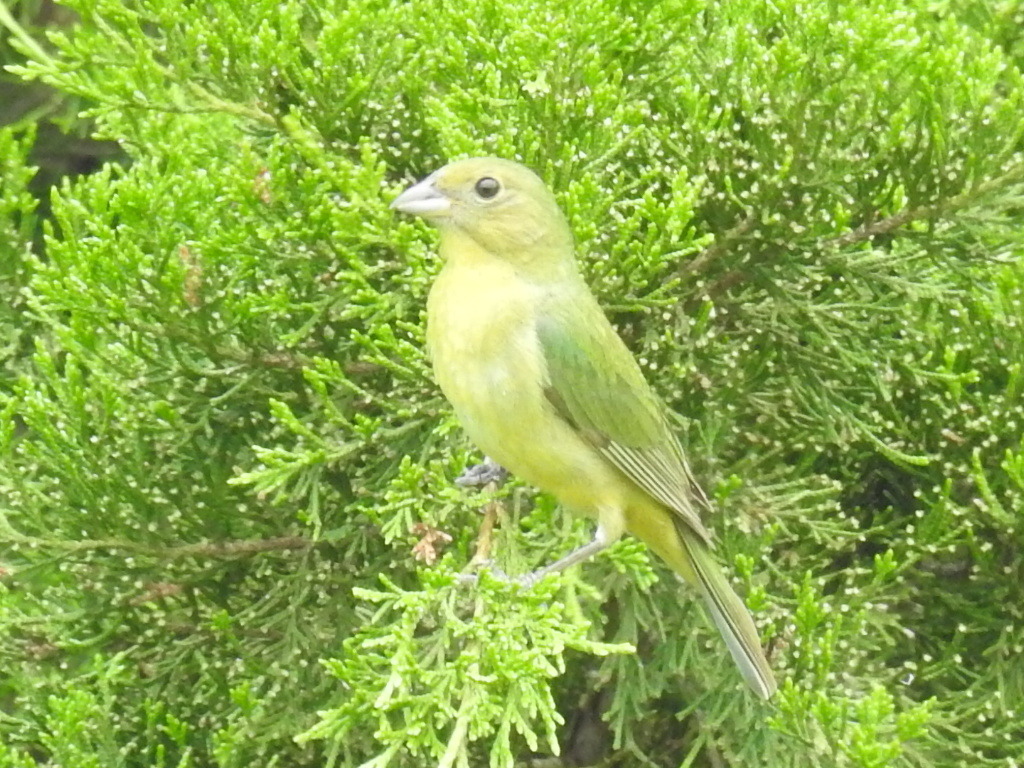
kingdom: Animalia
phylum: Chordata
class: Aves
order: Passeriformes
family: Cardinalidae
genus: Passerina
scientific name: Passerina ciris
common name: Painted bunting
